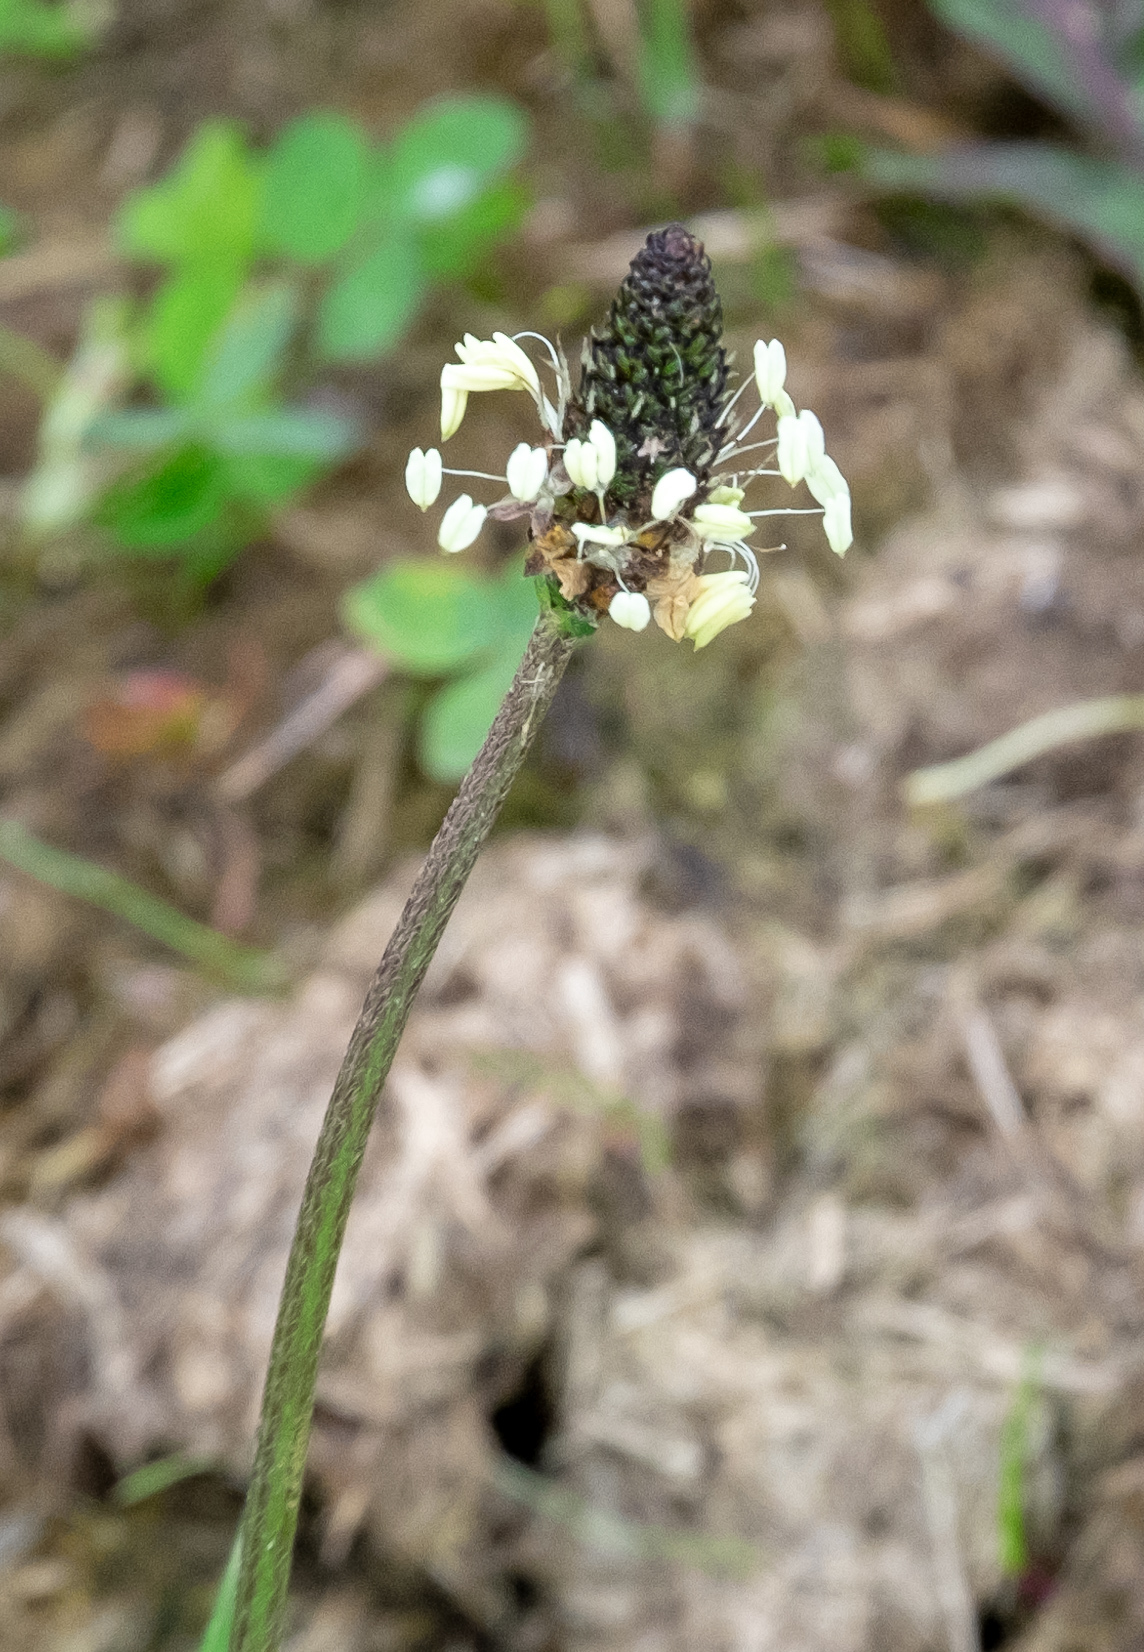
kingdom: Plantae
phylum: Tracheophyta
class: Magnoliopsida
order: Lamiales
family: Plantaginaceae
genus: Plantago
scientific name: Plantago lanceolata
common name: Ribwort plantain
